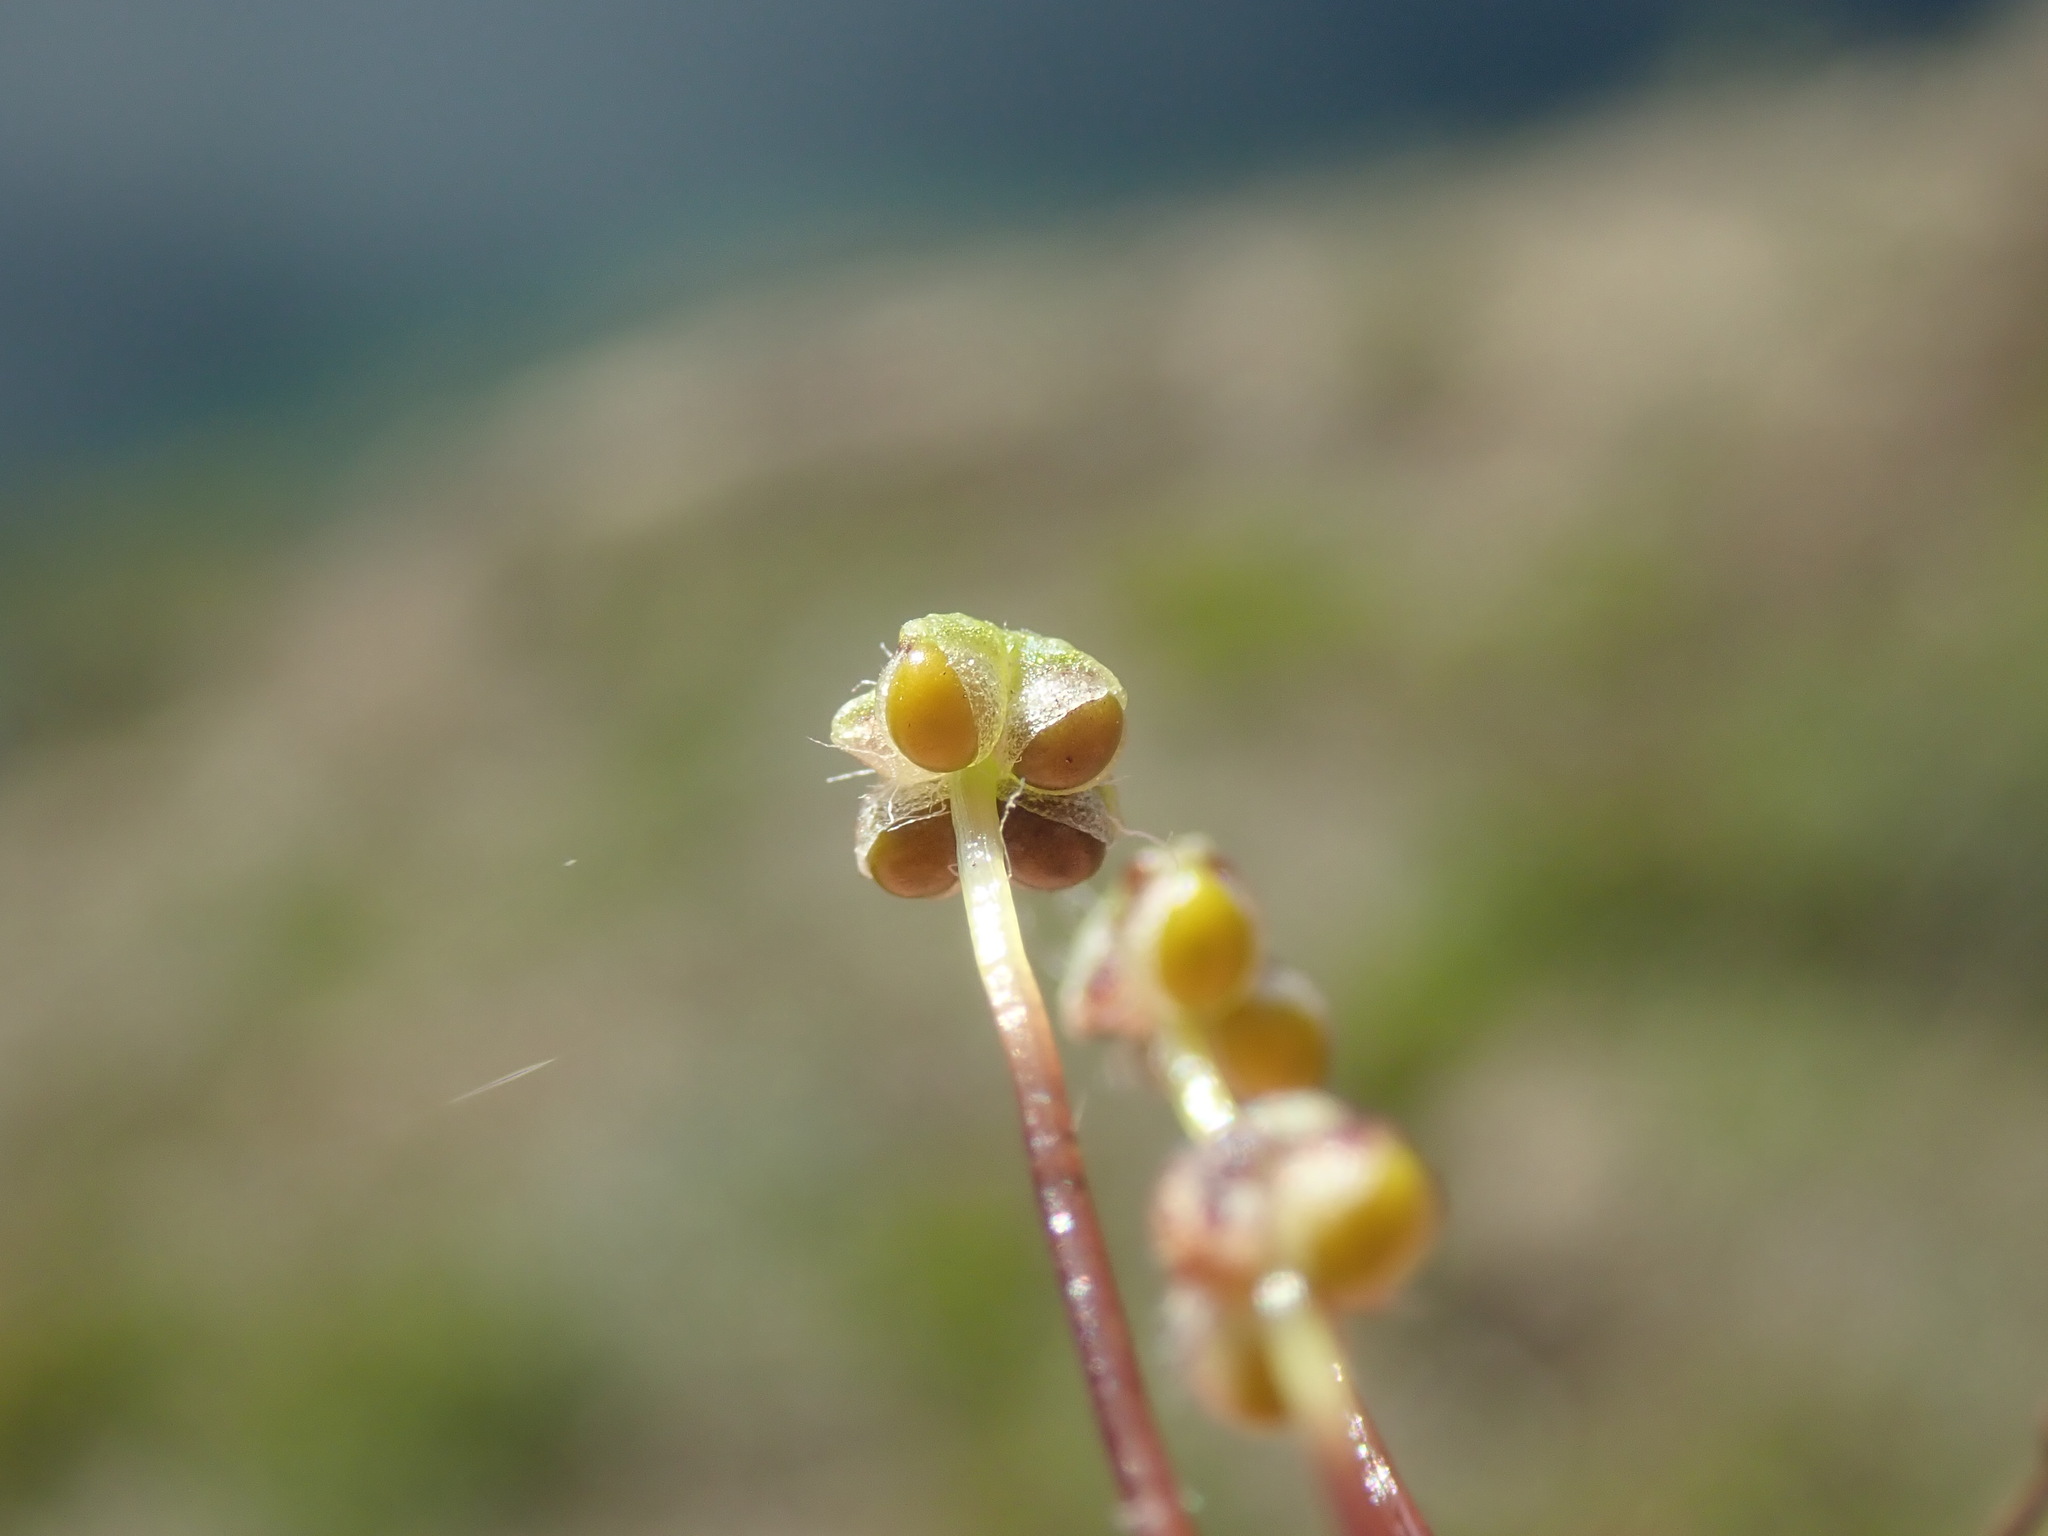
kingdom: Plantae
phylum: Marchantiophyta
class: Marchantiopsida
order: Marchantiales
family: Aytoniaceae
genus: Reboulia
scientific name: Reboulia hemisphaerica
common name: Purple-margined liverwort
